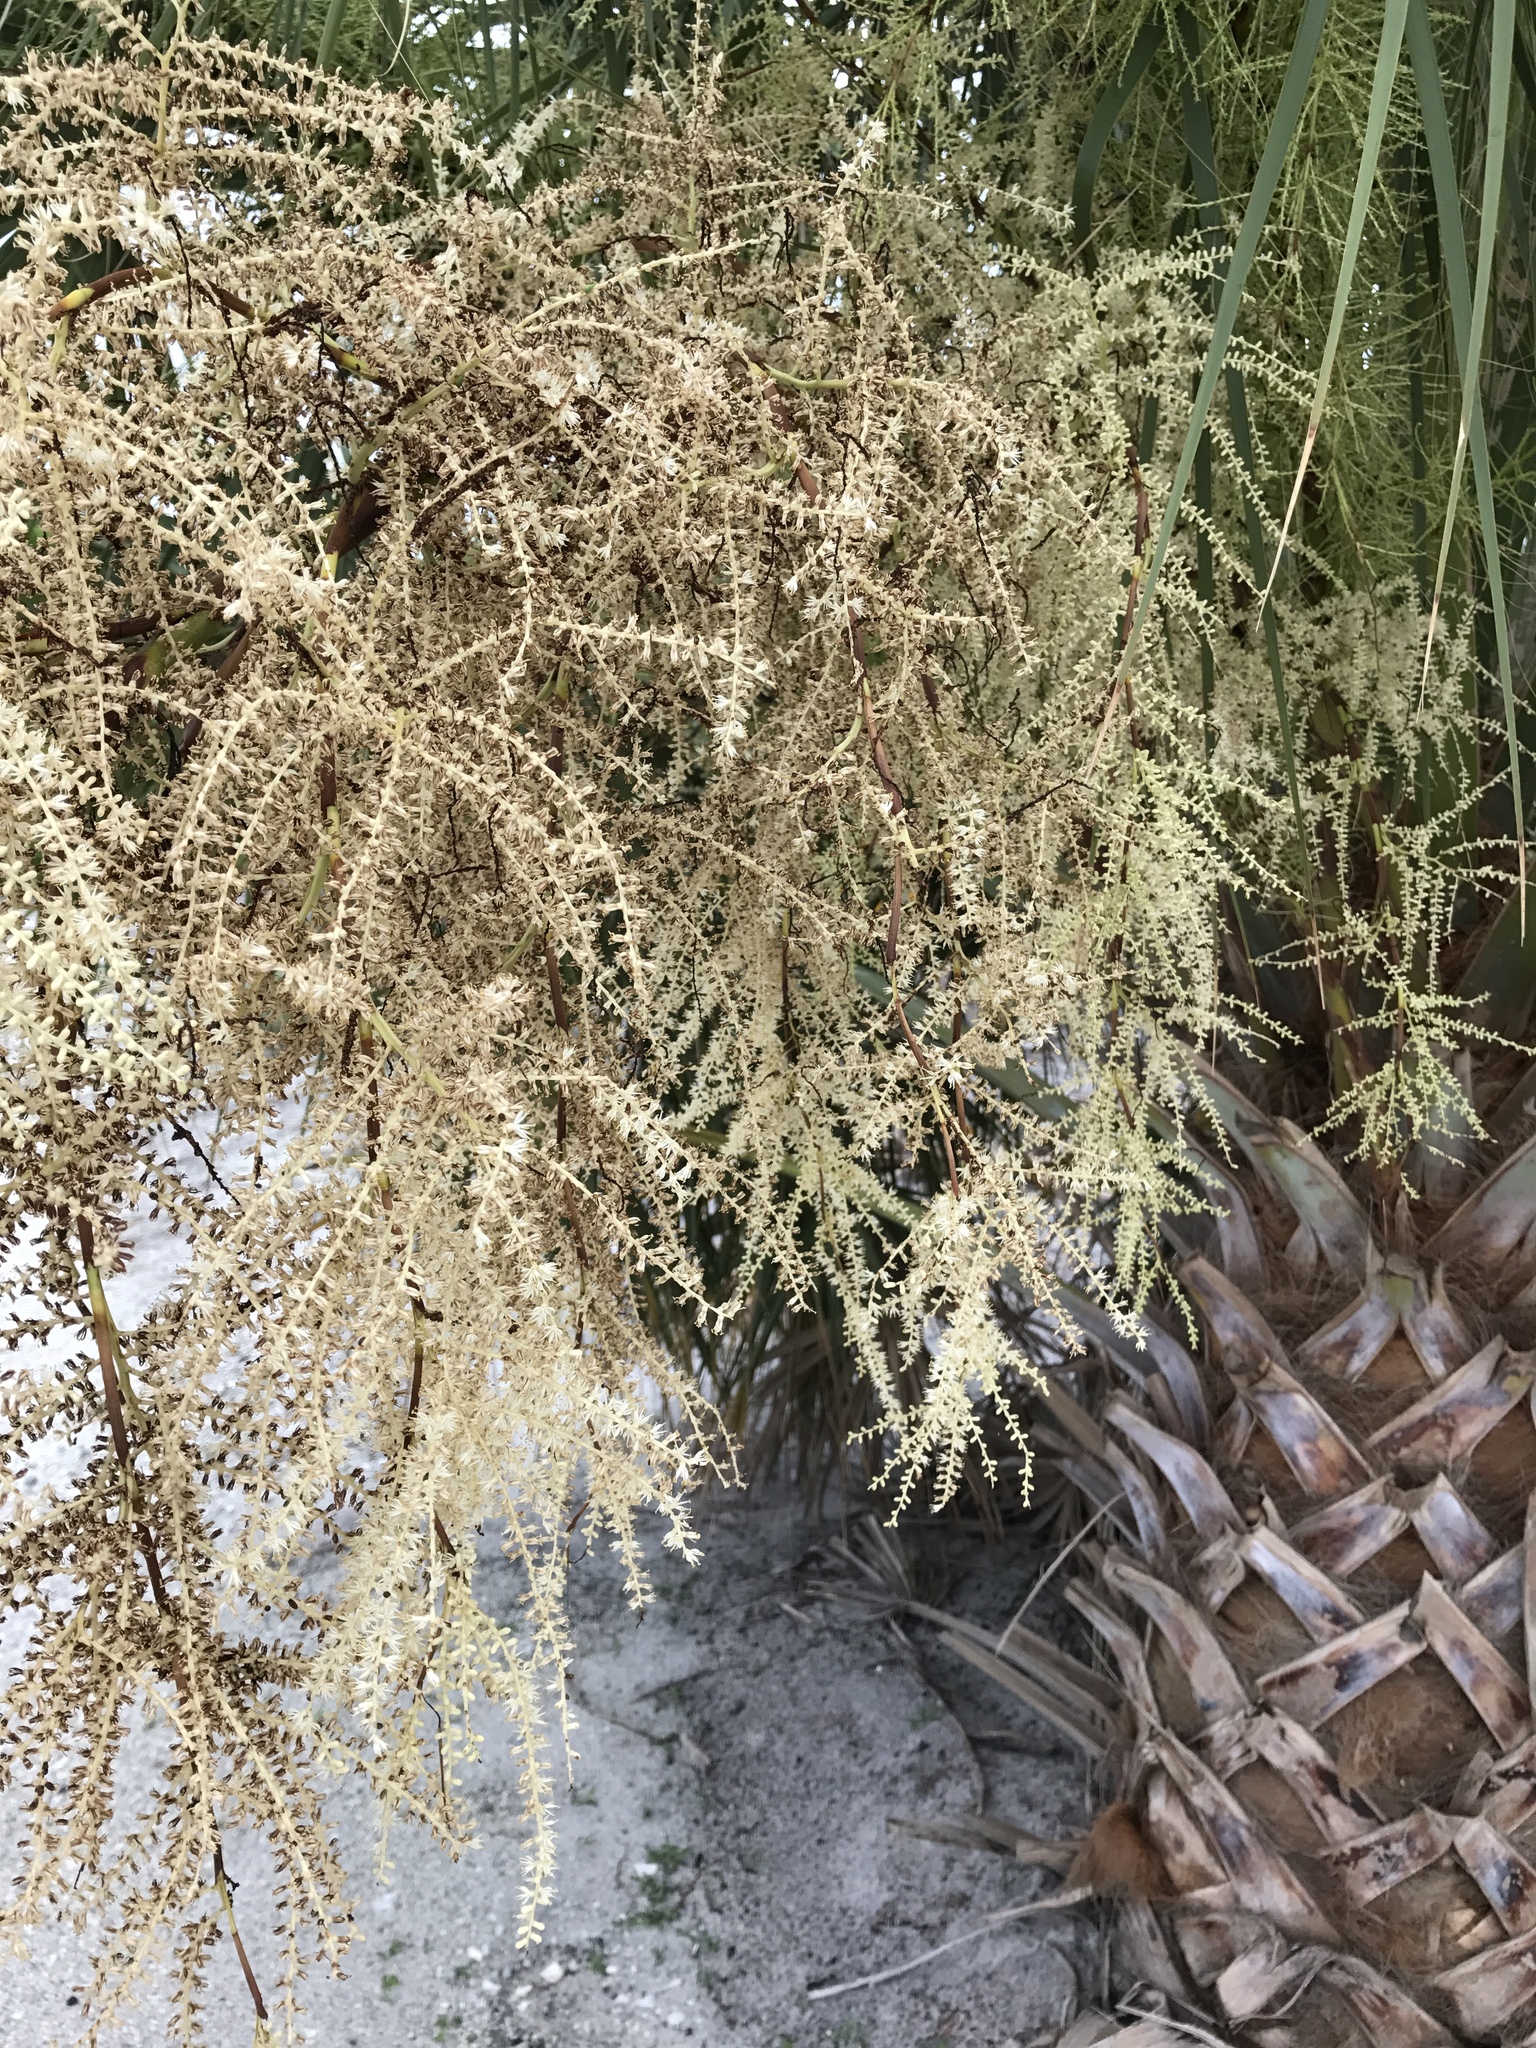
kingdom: Plantae
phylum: Tracheophyta
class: Liliopsida
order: Arecales
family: Arecaceae
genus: Sabal
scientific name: Sabal palmetto
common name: Blue palmetto
